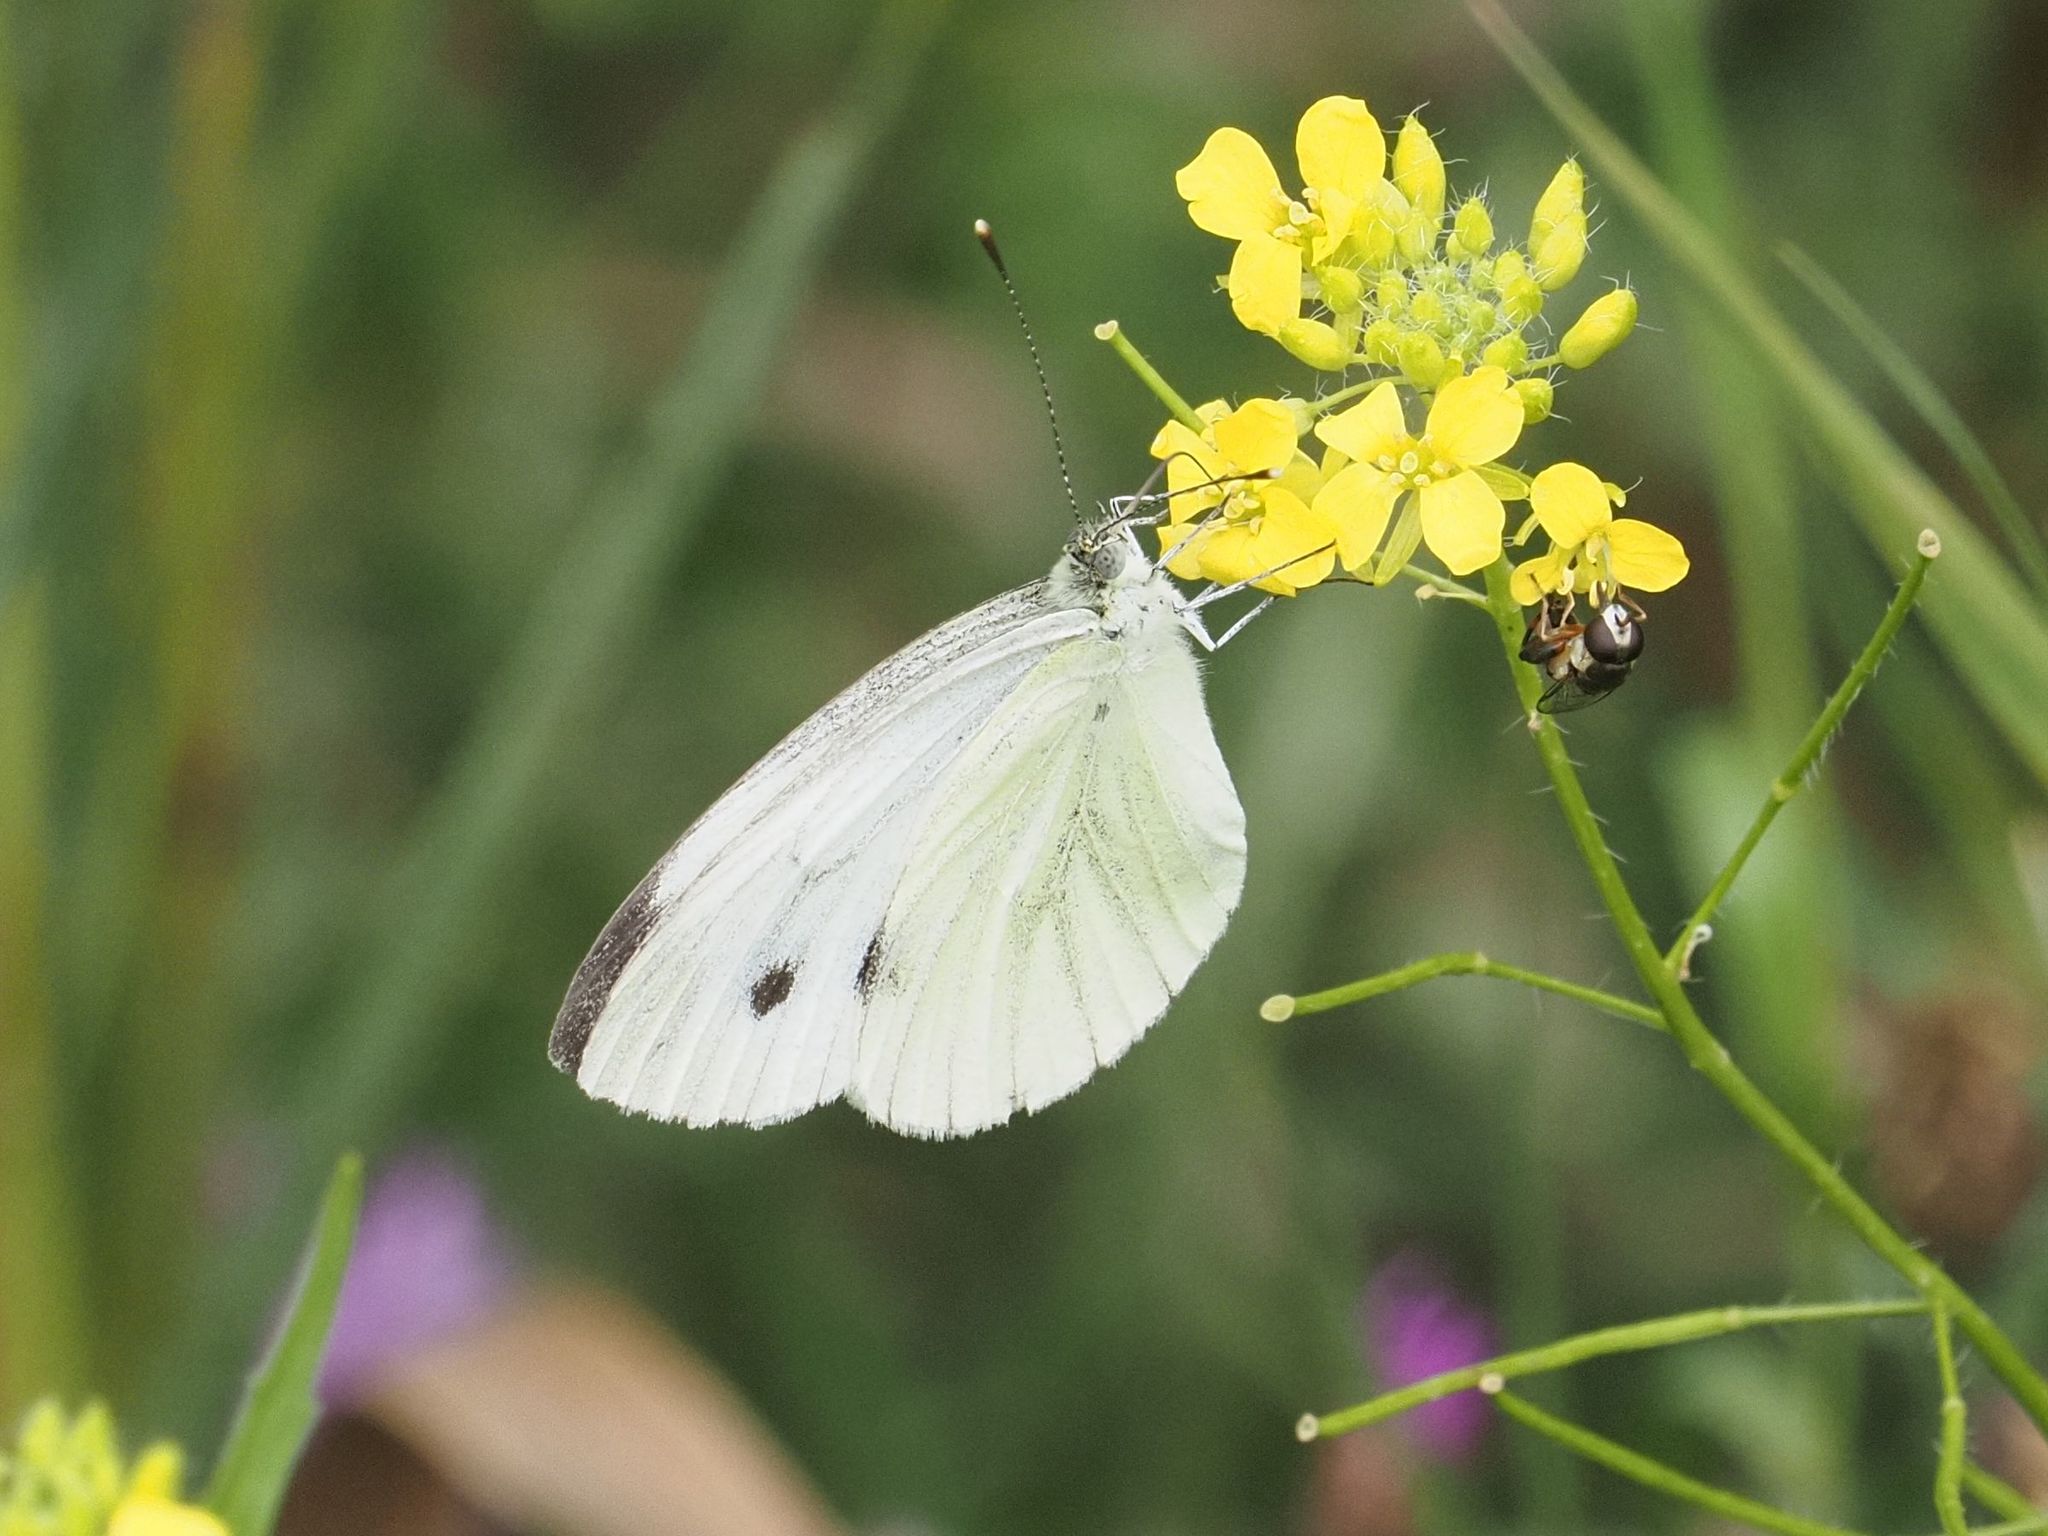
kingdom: Animalia
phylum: Arthropoda
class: Insecta
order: Lepidoptera
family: Pieridae
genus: Pieris
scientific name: Pieris napi
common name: Green-veined white
